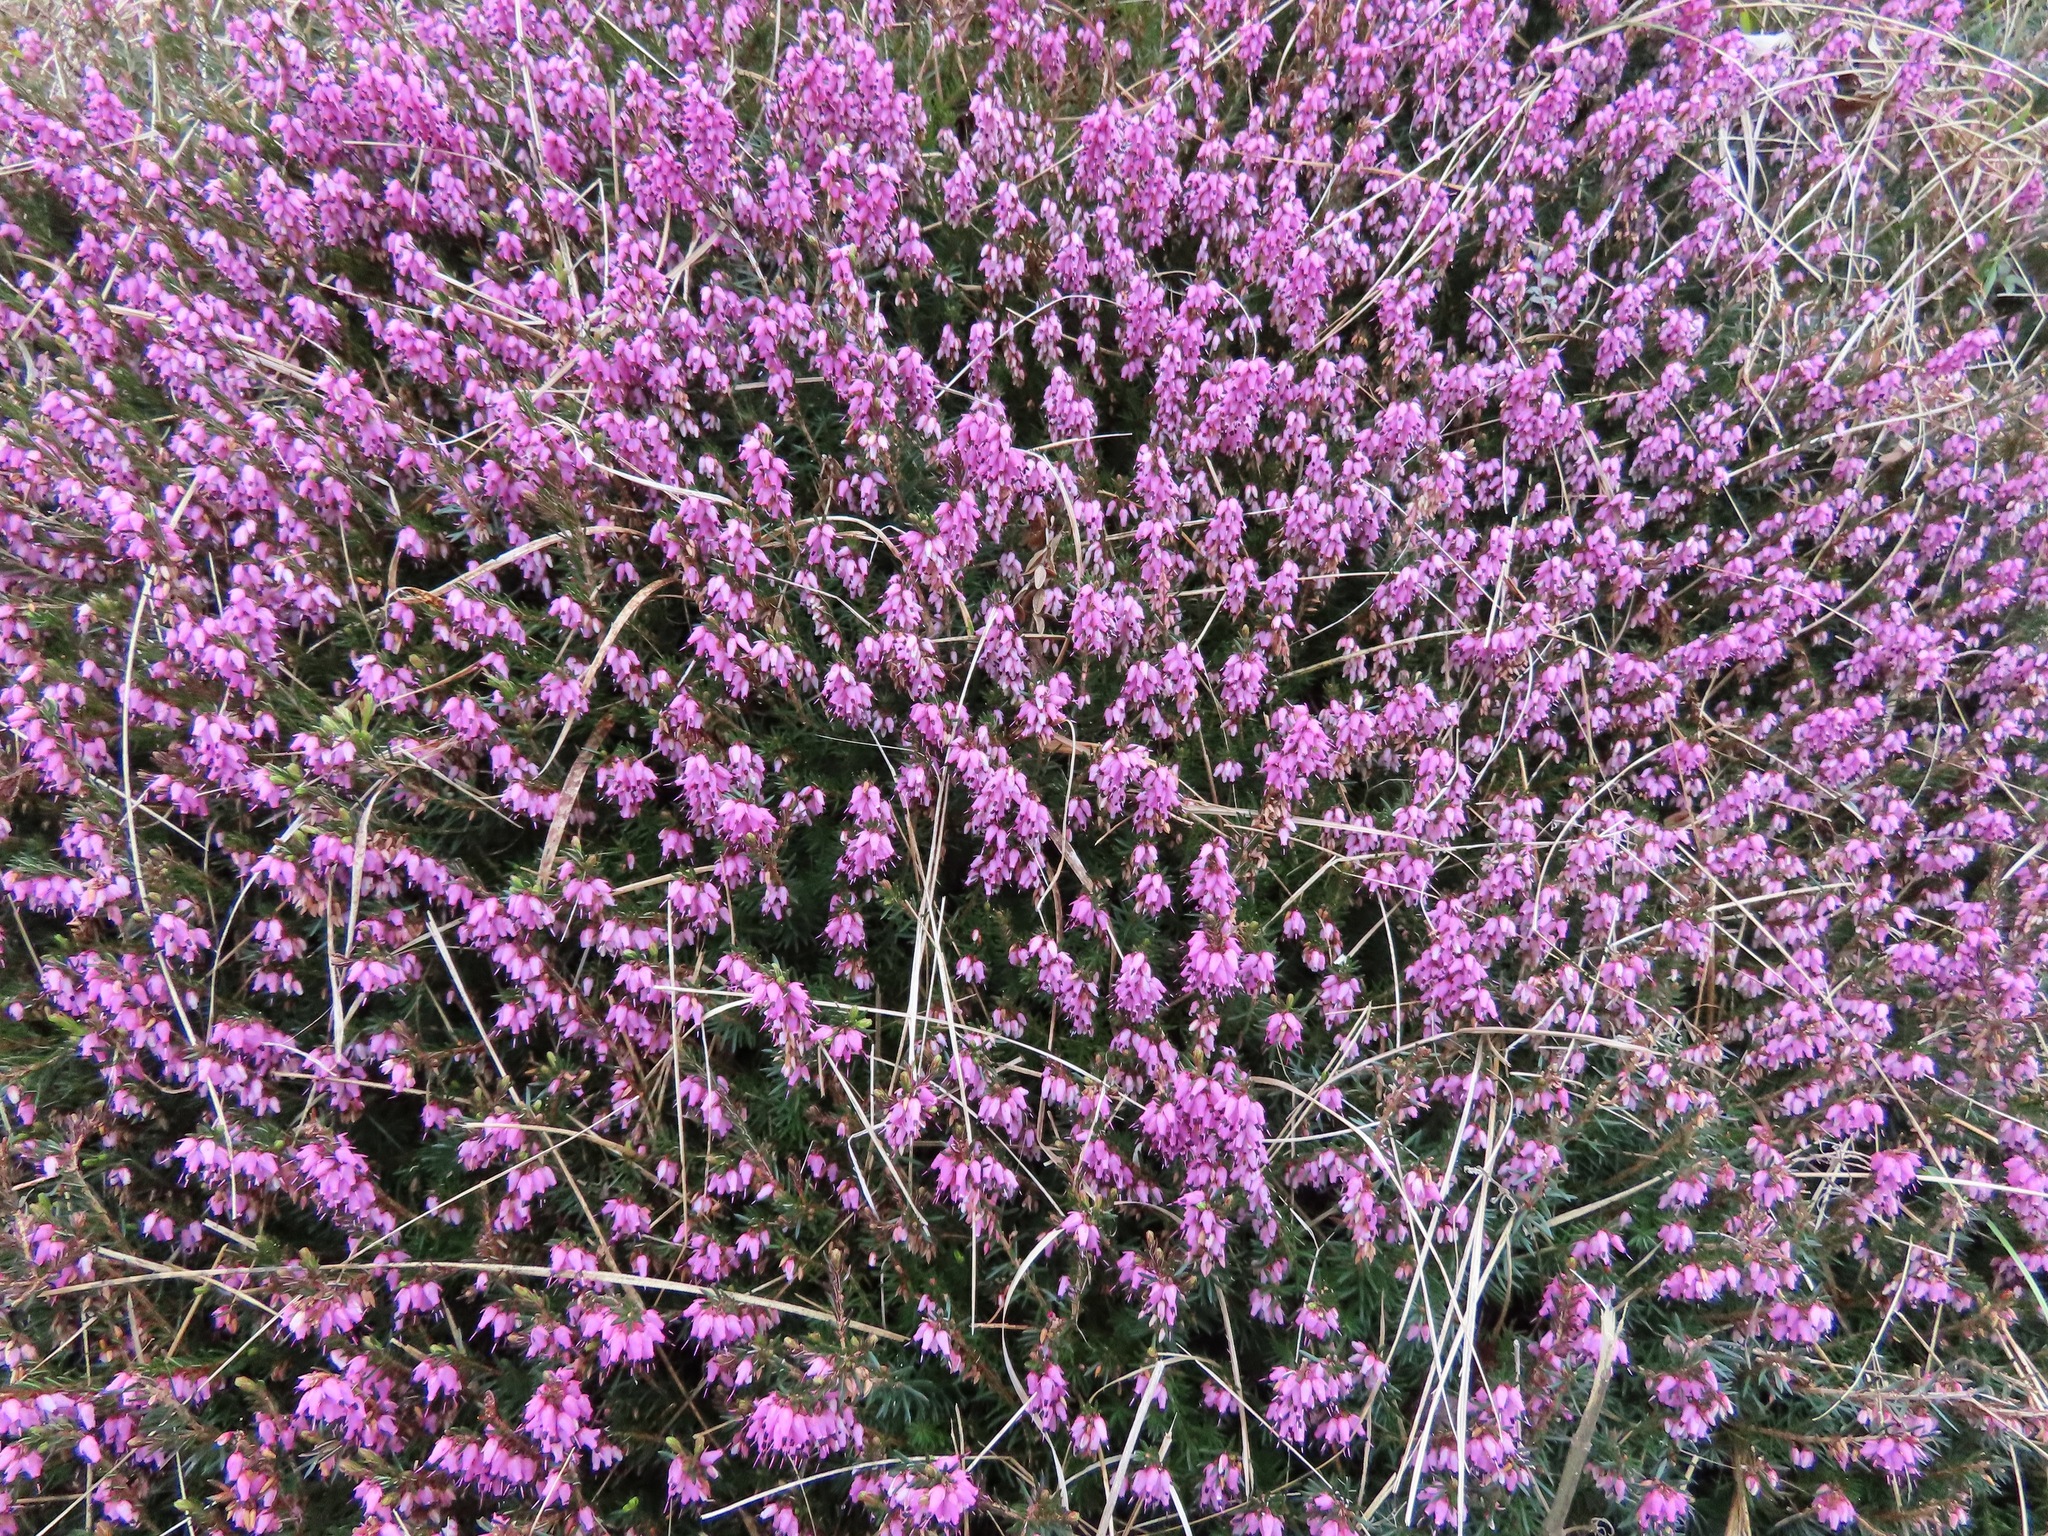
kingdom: Plantae
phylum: Tracheophyta
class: Magnoliopsida
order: Ericales
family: Ericaceae
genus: Erica
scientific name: Erica carnea
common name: Winter heath
